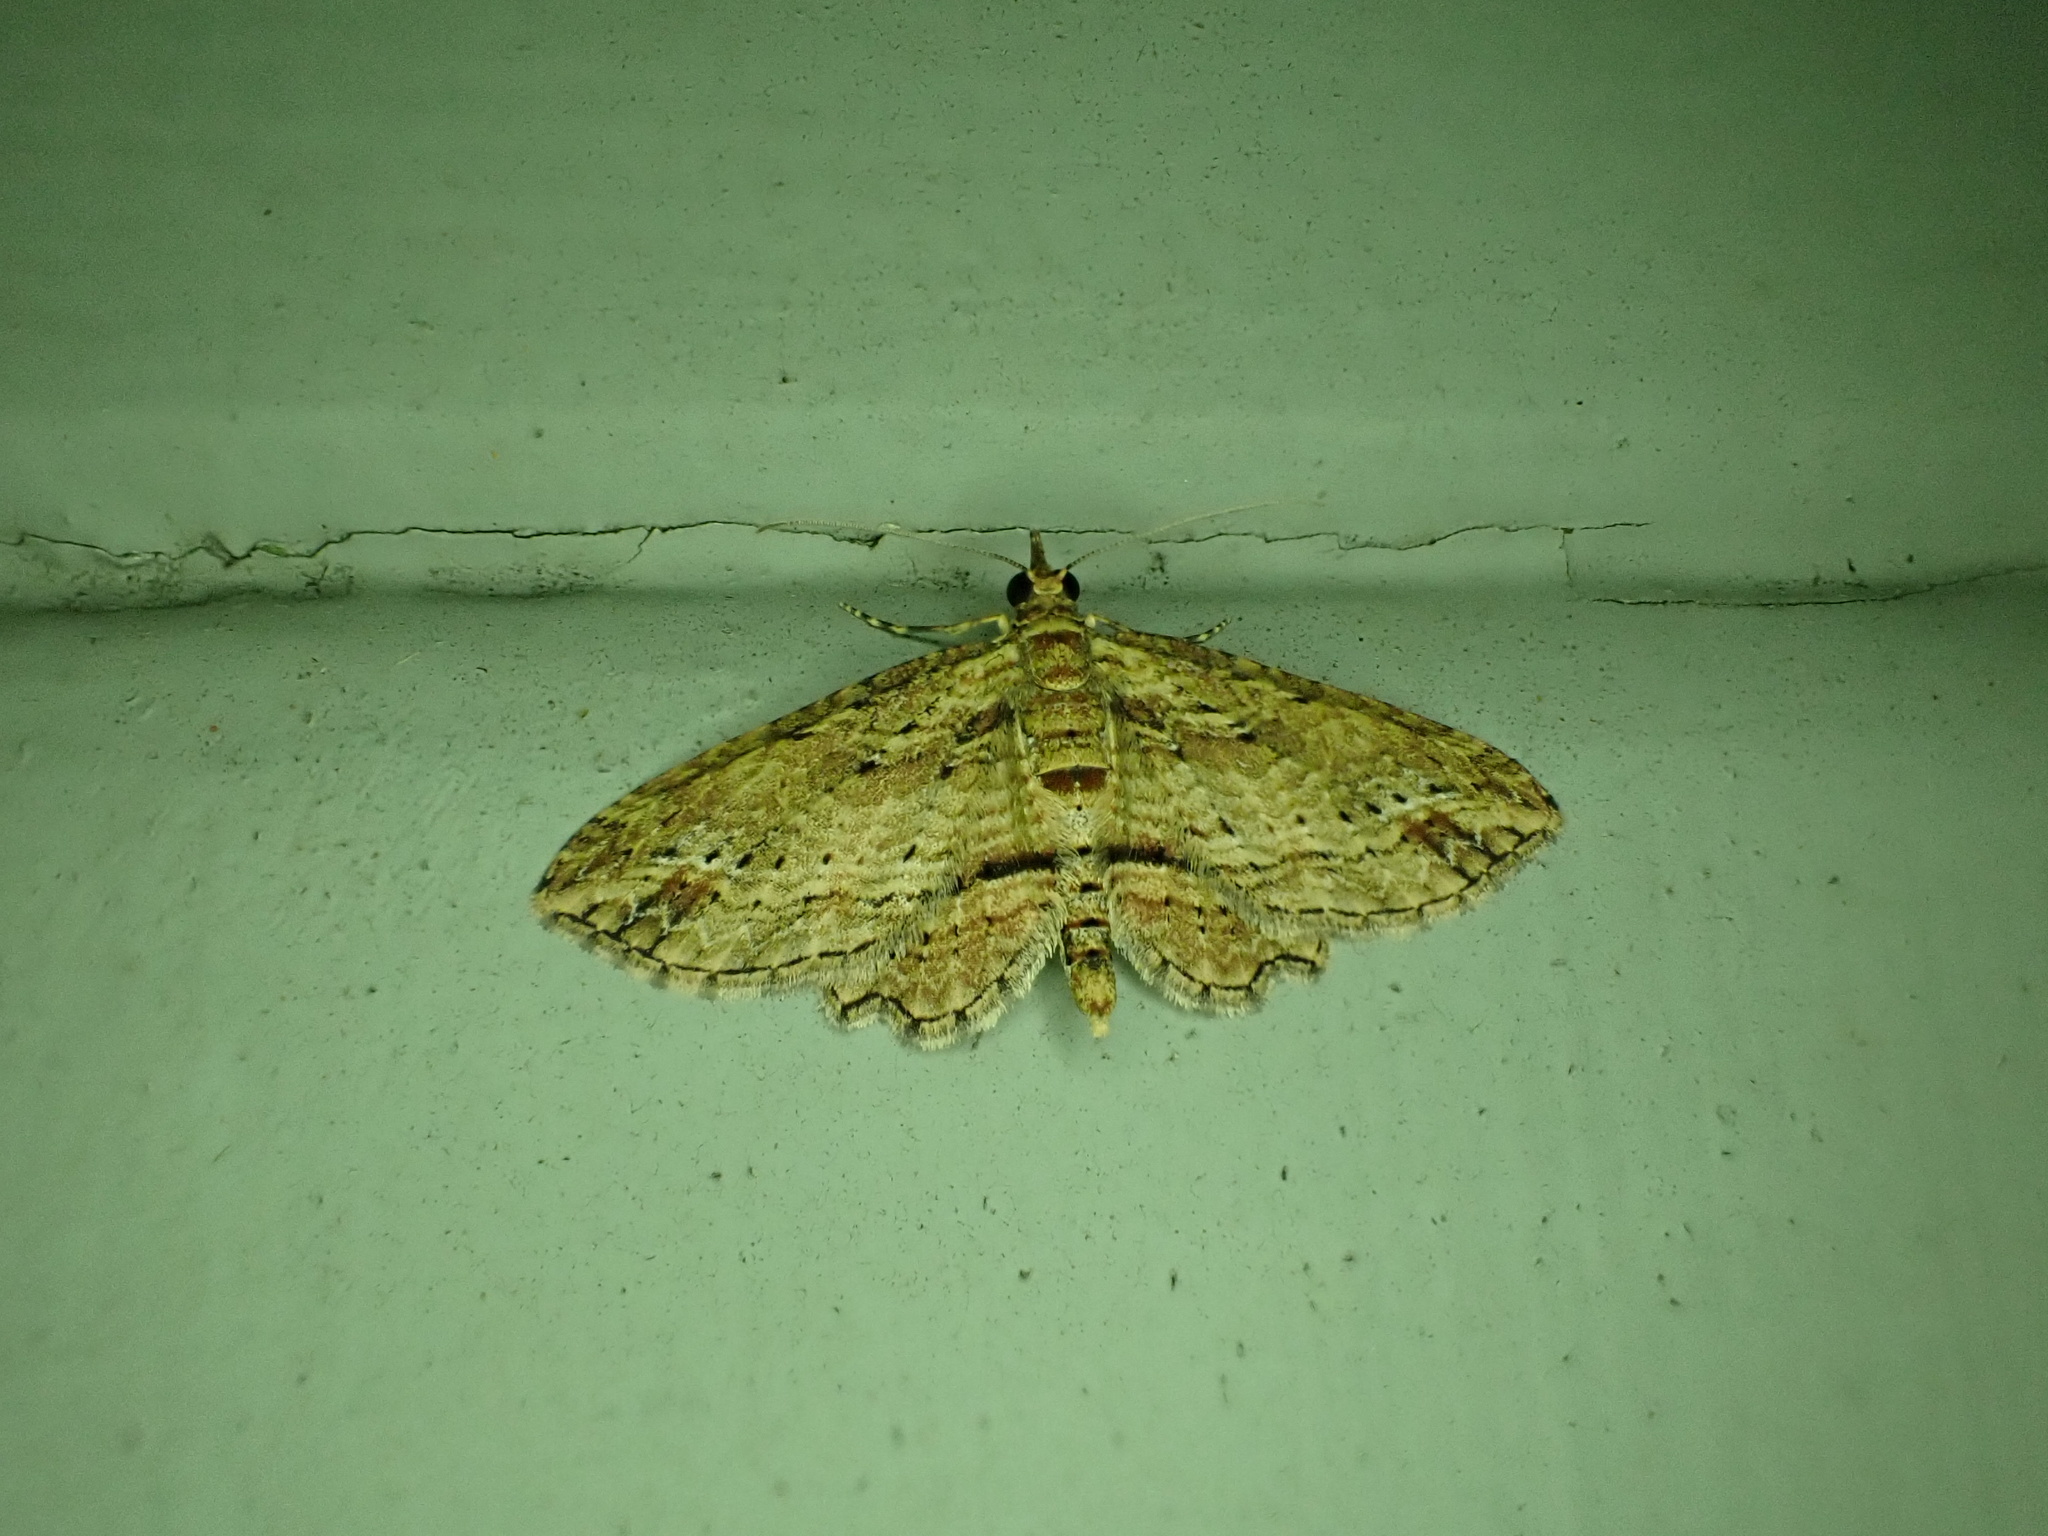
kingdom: Animalia
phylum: Arthropoda
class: Insecta
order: Lepidoptera
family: Geometridae
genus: Chloroclystis
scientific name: Chloroclystis filata
